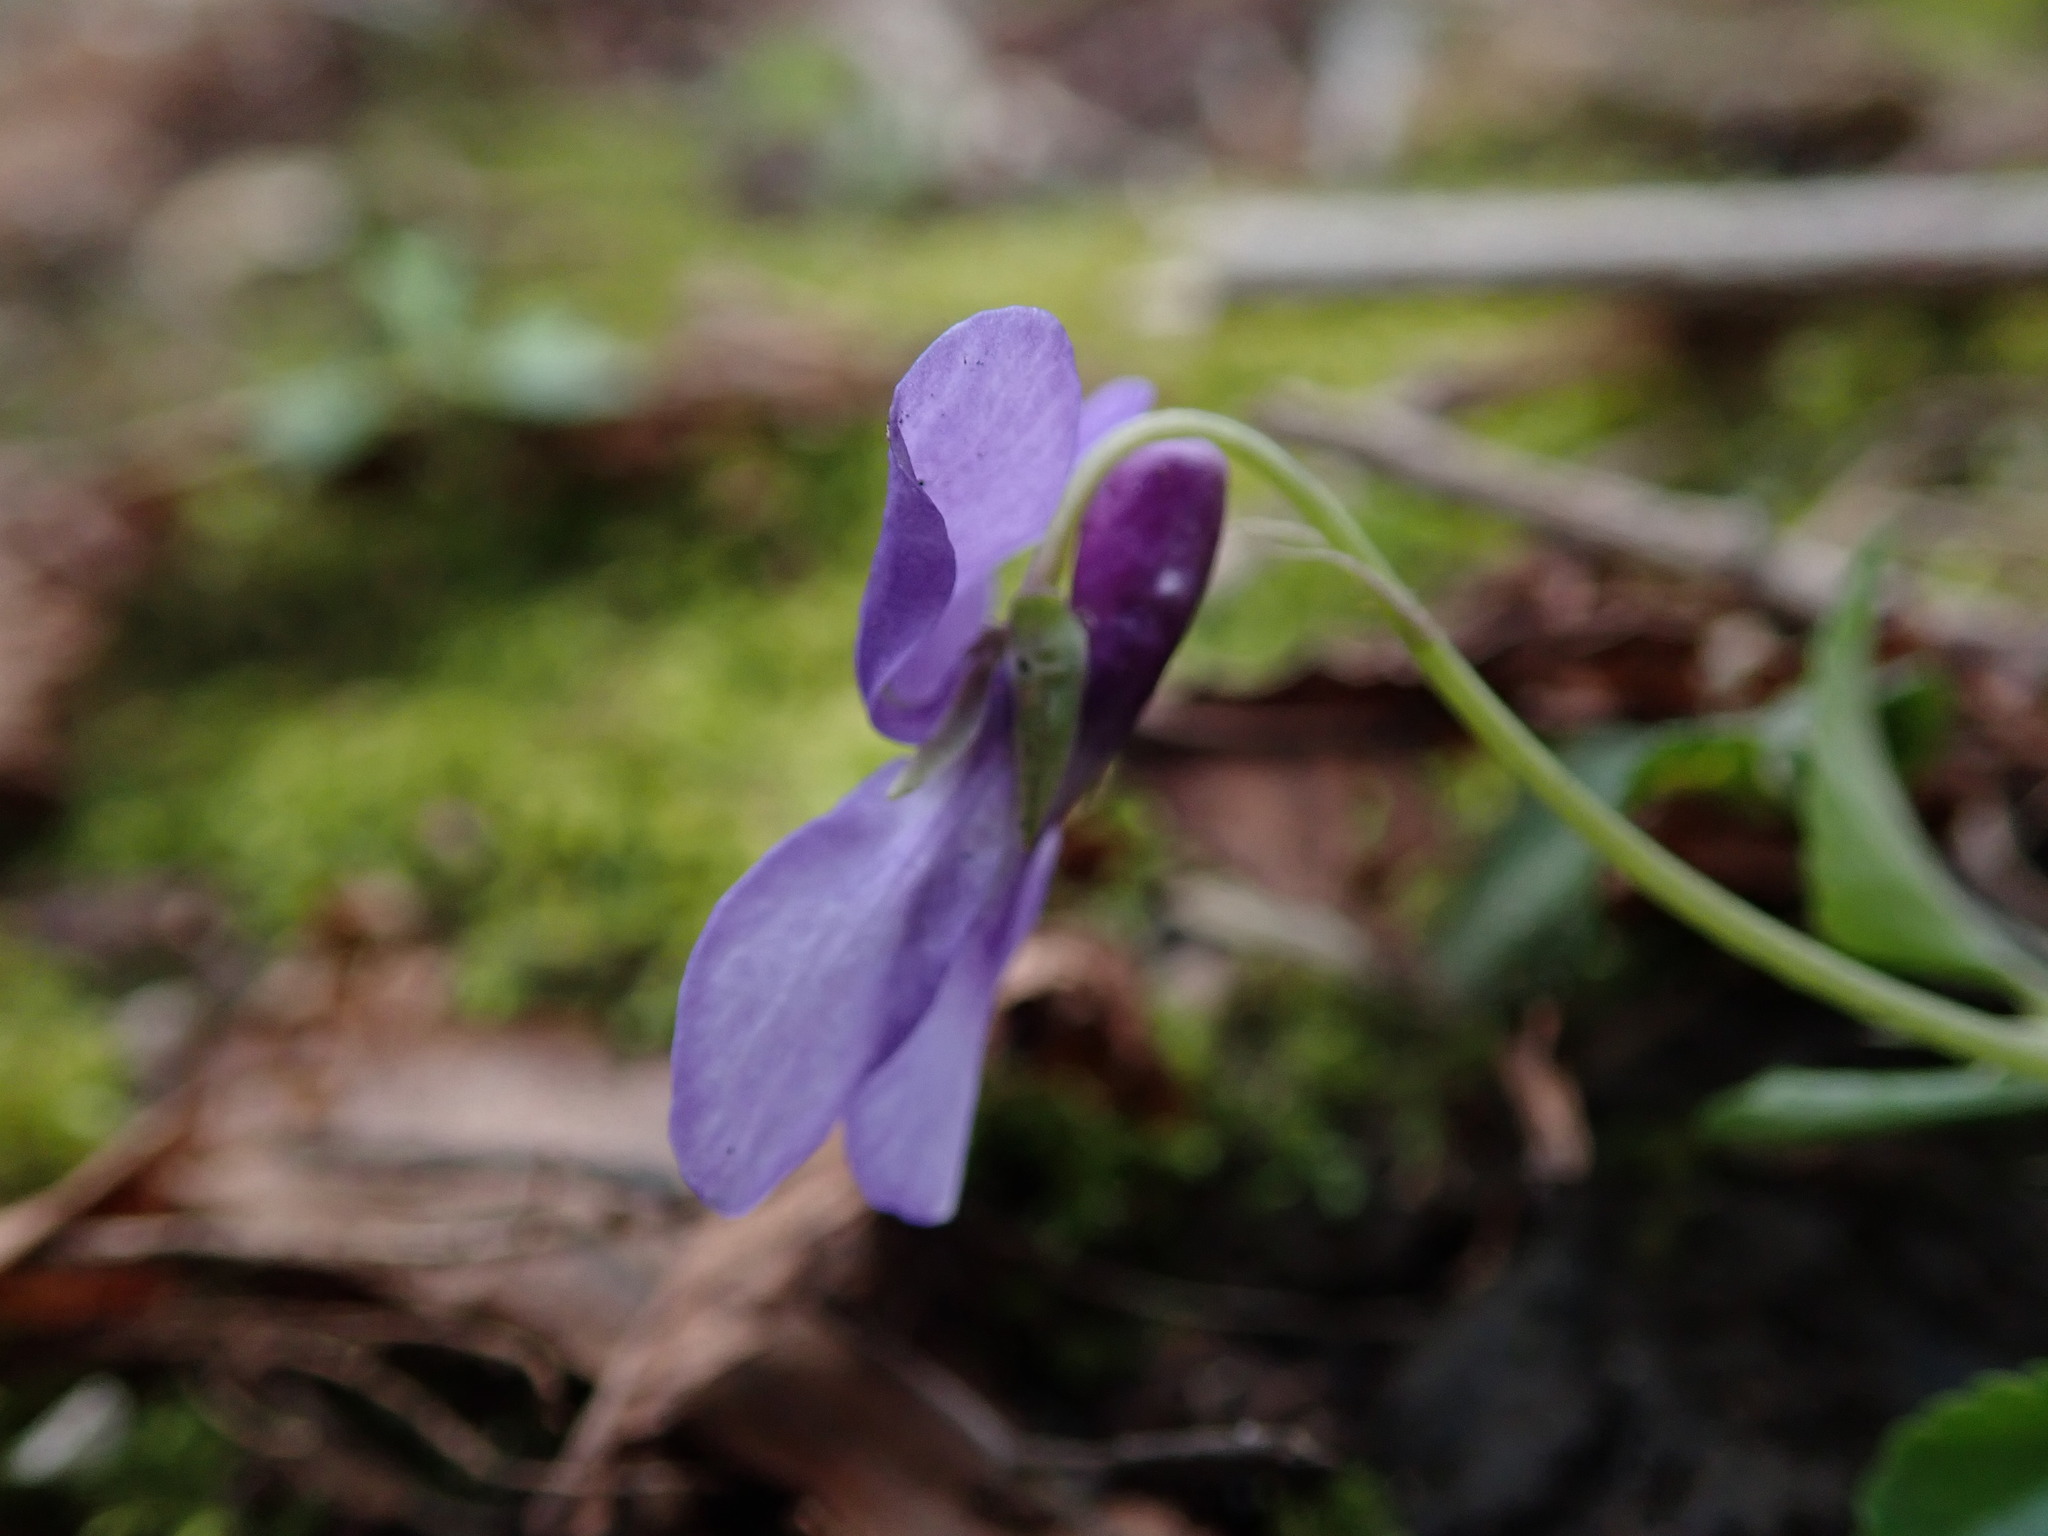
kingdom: Plantae
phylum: Tracheophyta
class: Magnoliopsida
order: Malpighiales
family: Violaceae
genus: Viola
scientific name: Viola reichenbachiana
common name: Early dog-violet
